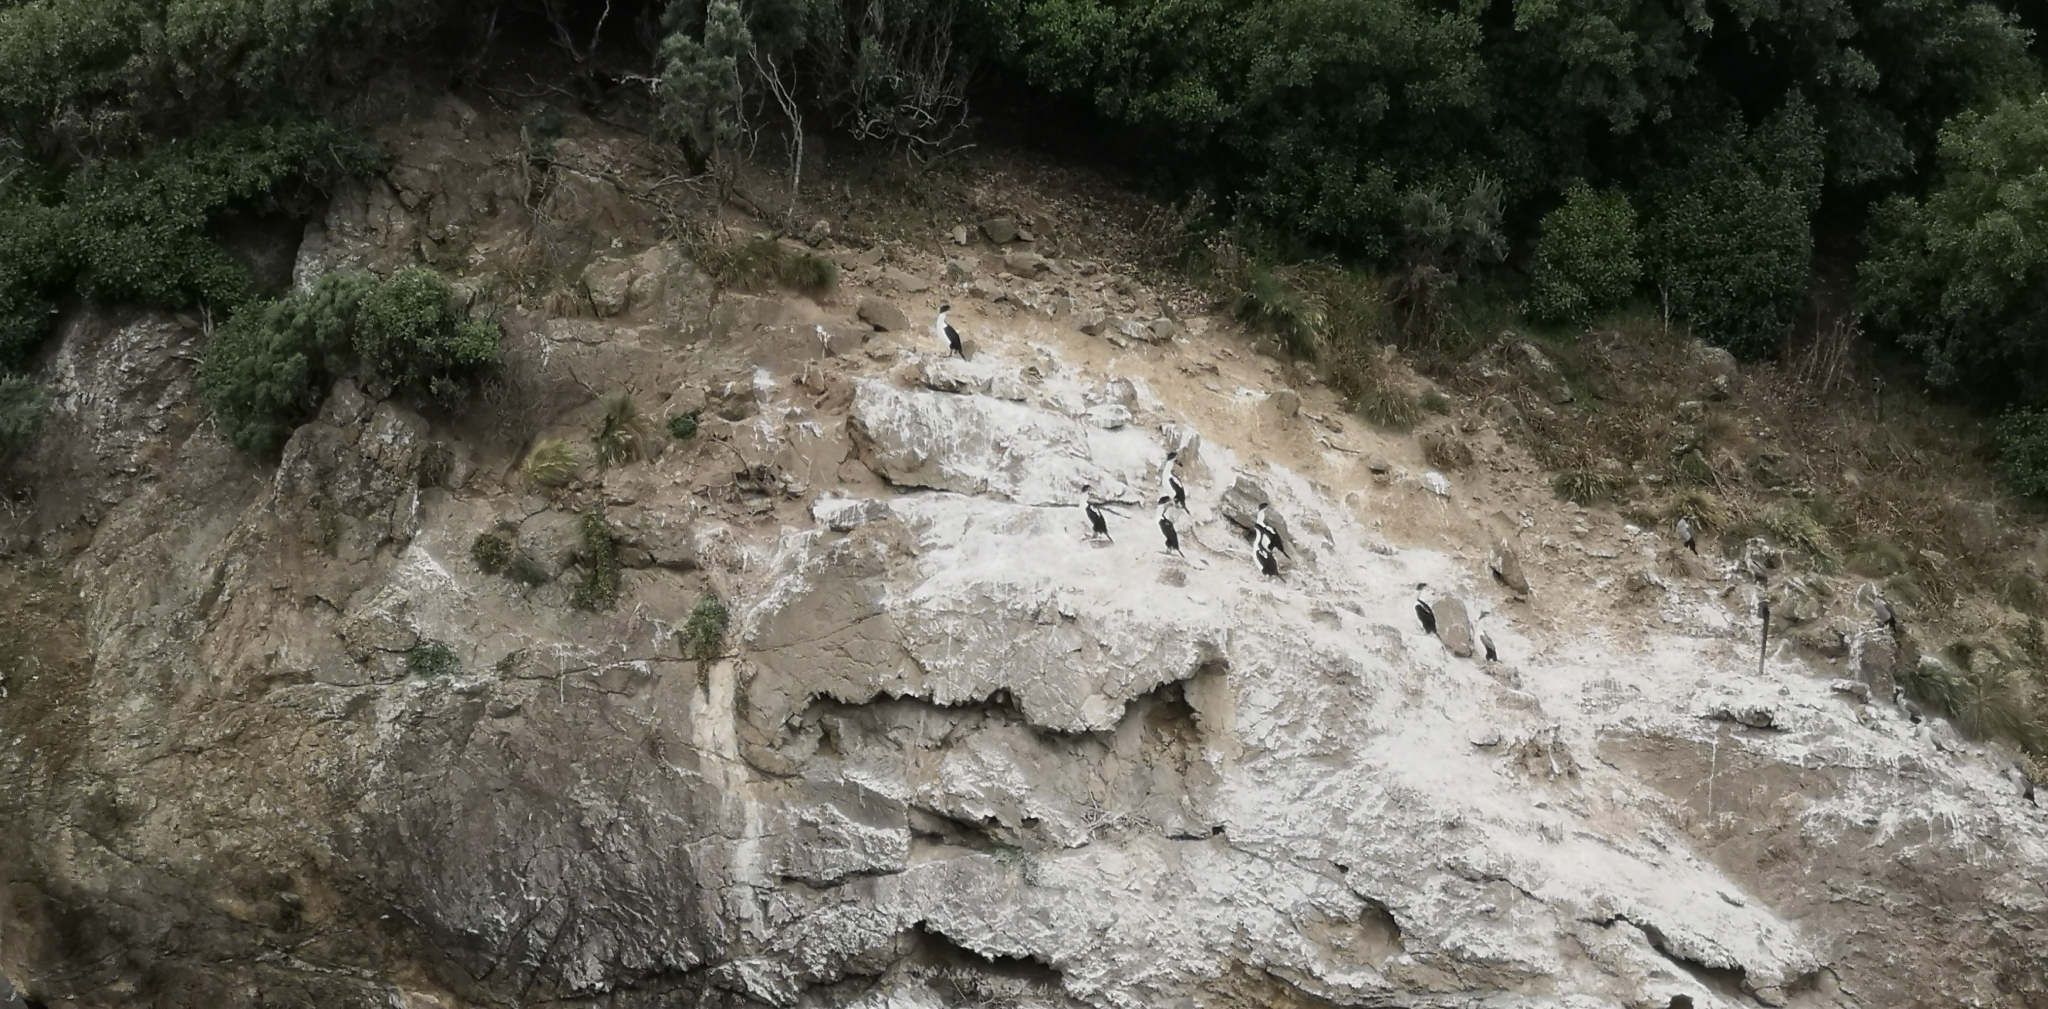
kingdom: Animalia
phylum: Chordata
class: Aves
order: Suliformes
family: Phalacrocoracidae
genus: Leucocarbo
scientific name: Leucocarbo carunculatus
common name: Rough-faced shag
